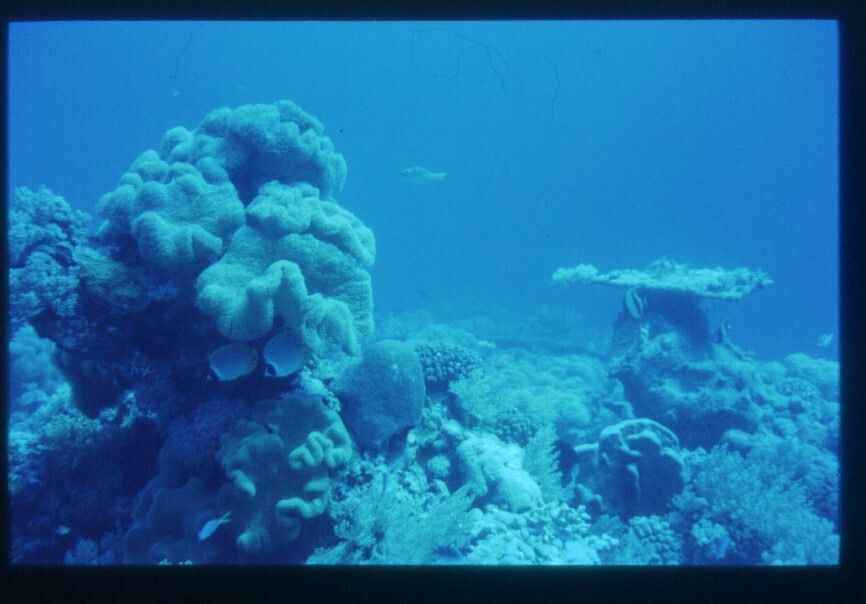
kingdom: Animalia
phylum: Chordata
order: Perciformes
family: Chaetodontidae
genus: Chaetodon
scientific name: Chaetodon adiergastos
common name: Eye-patch butterflyfish
